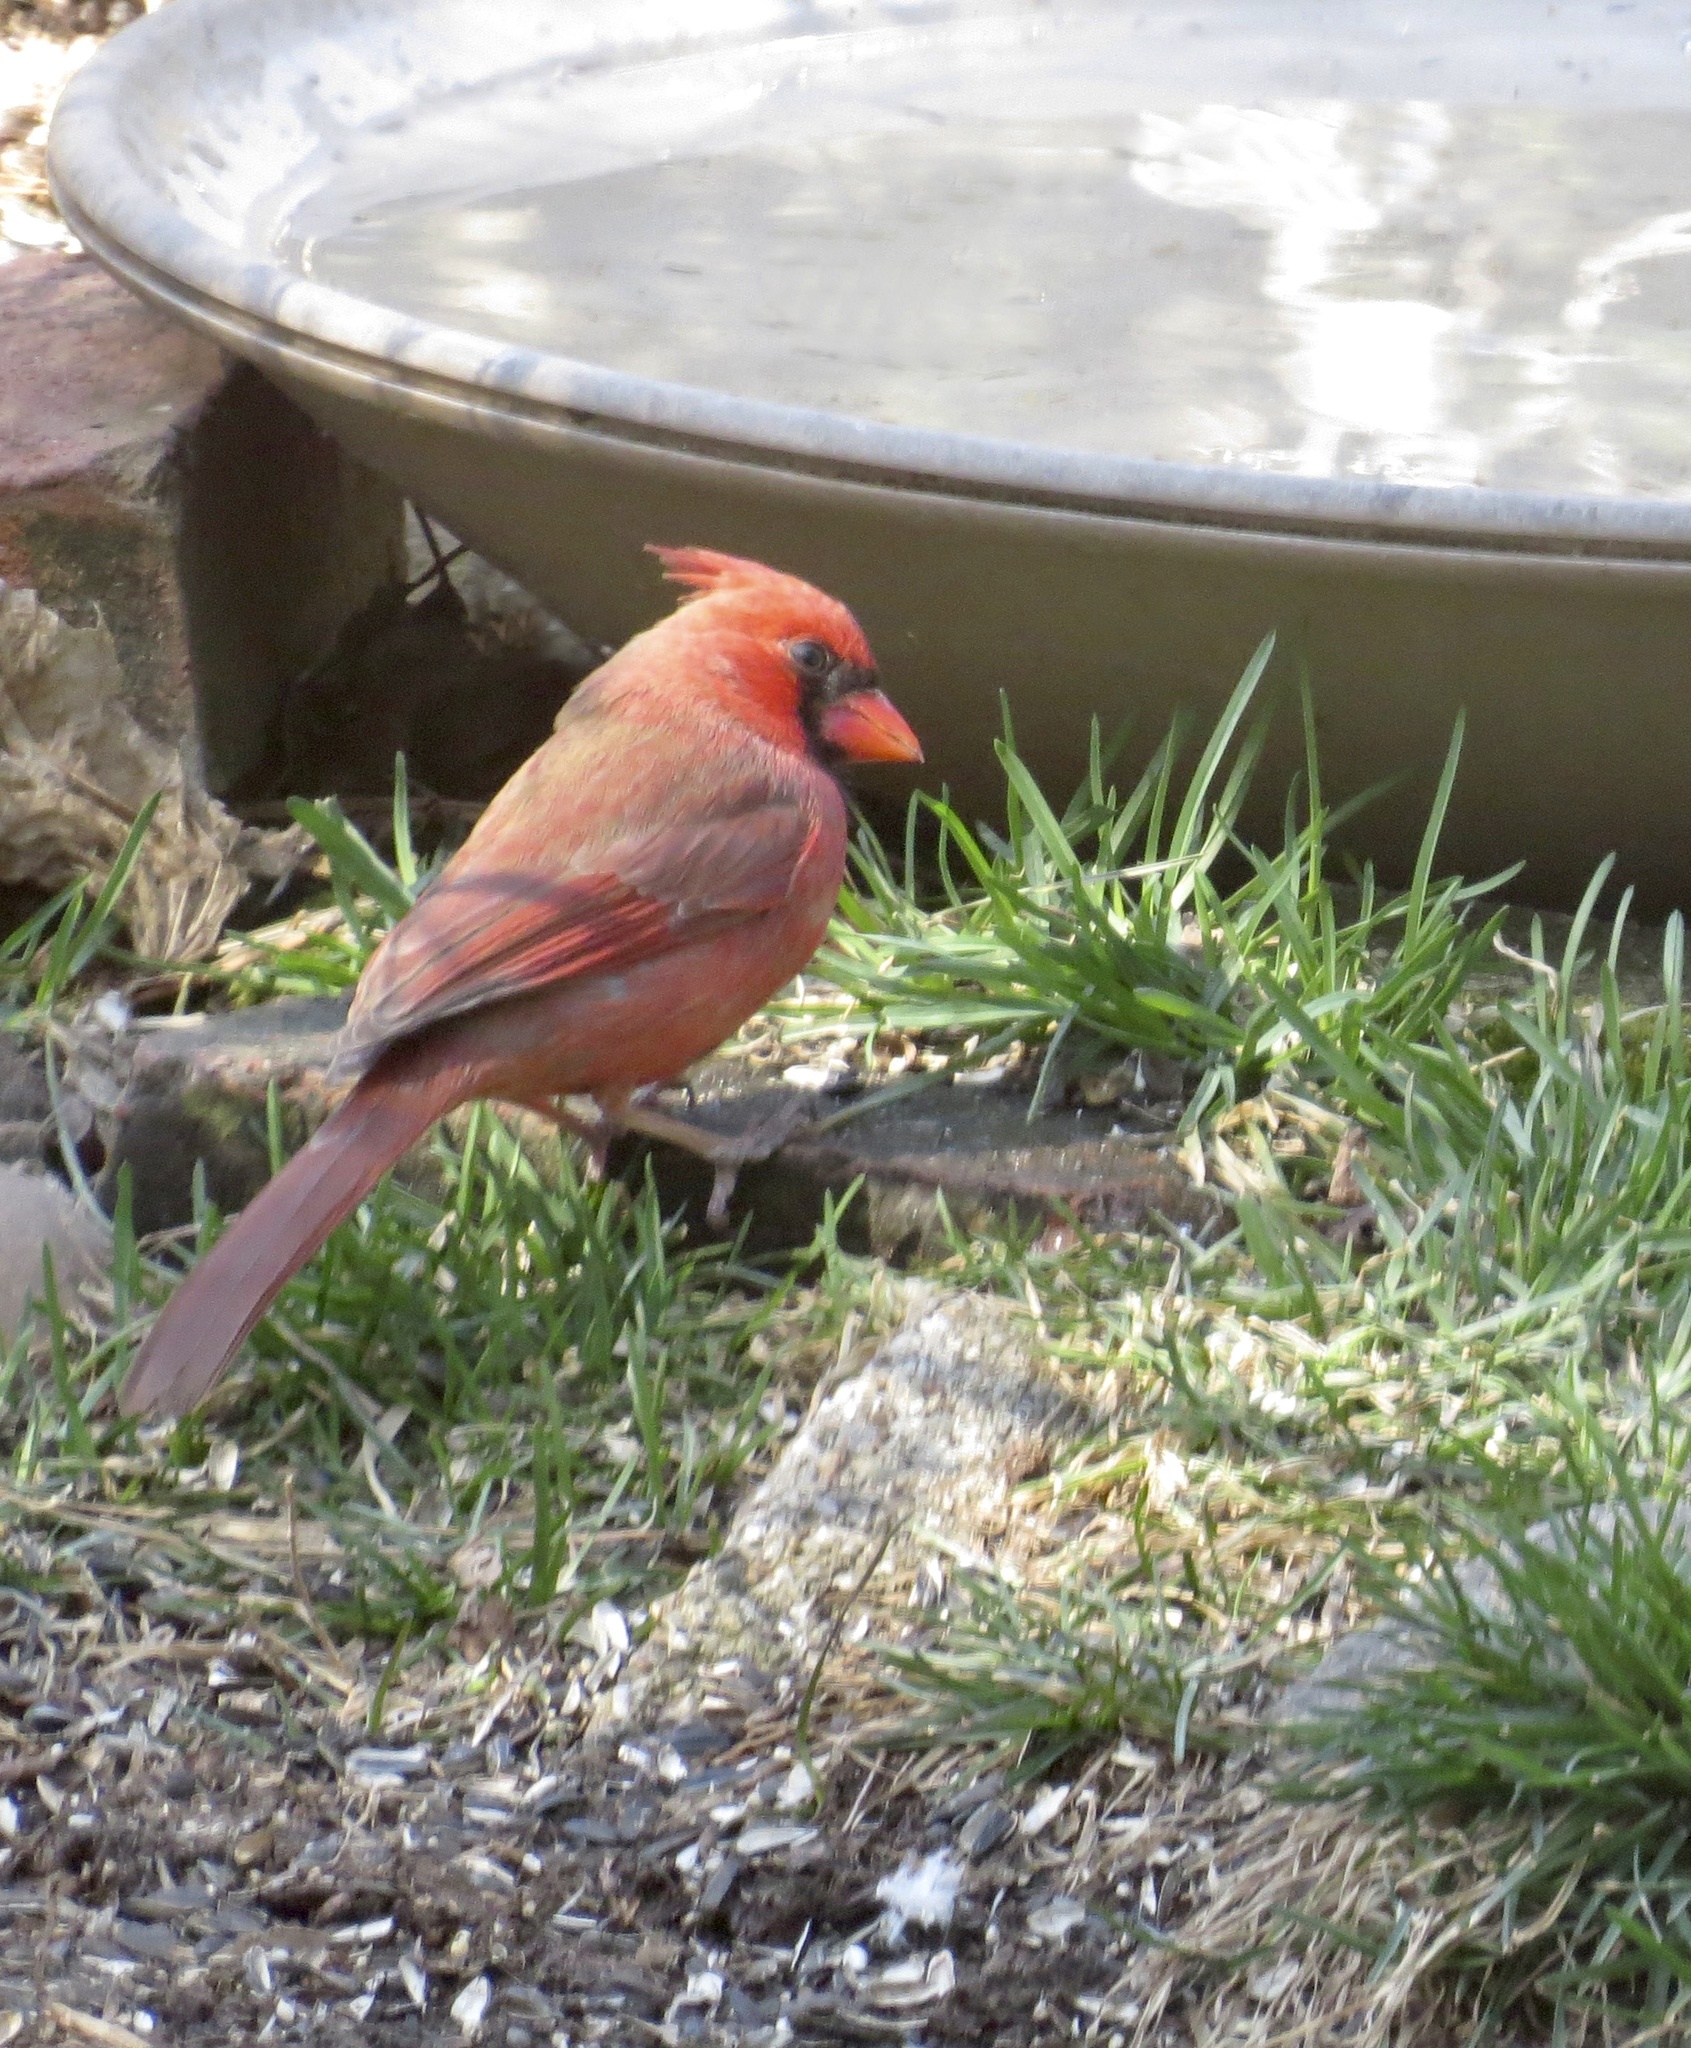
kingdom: Animalia
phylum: Chordata
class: Aves
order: Passeriformes
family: Cardinalidae
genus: Cardinalis
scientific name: Cardinalis cardinalis
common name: Northern cardinal
